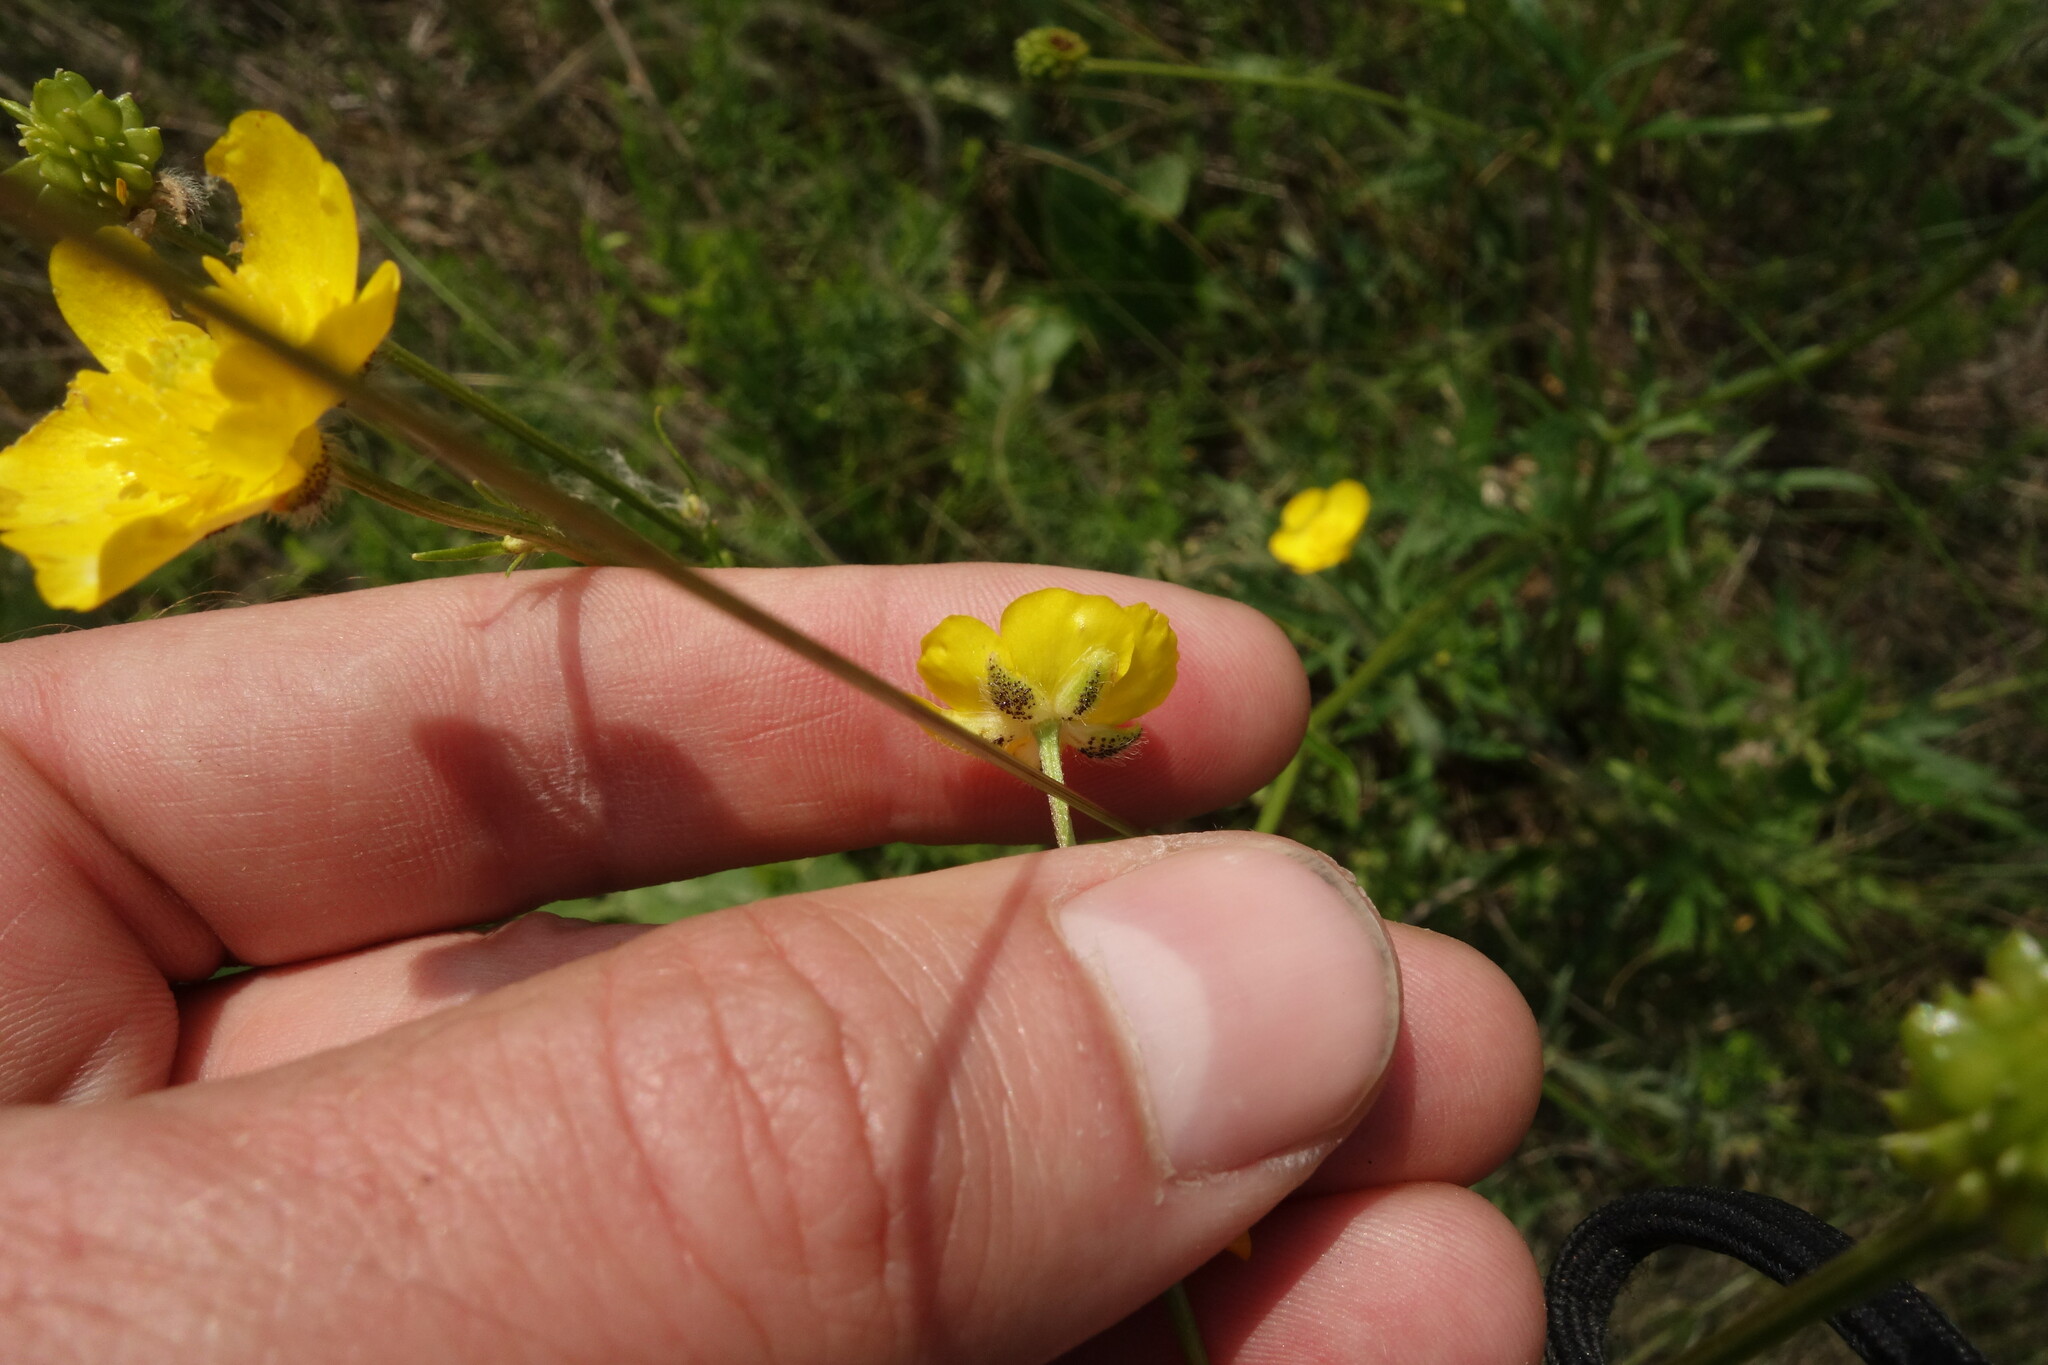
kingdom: Plantae
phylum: Tracheophyta
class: Magnoliopsida
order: Ranunculales
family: Ranunculaceae
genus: Ranunculus
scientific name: Ranunculus polyanthemos
